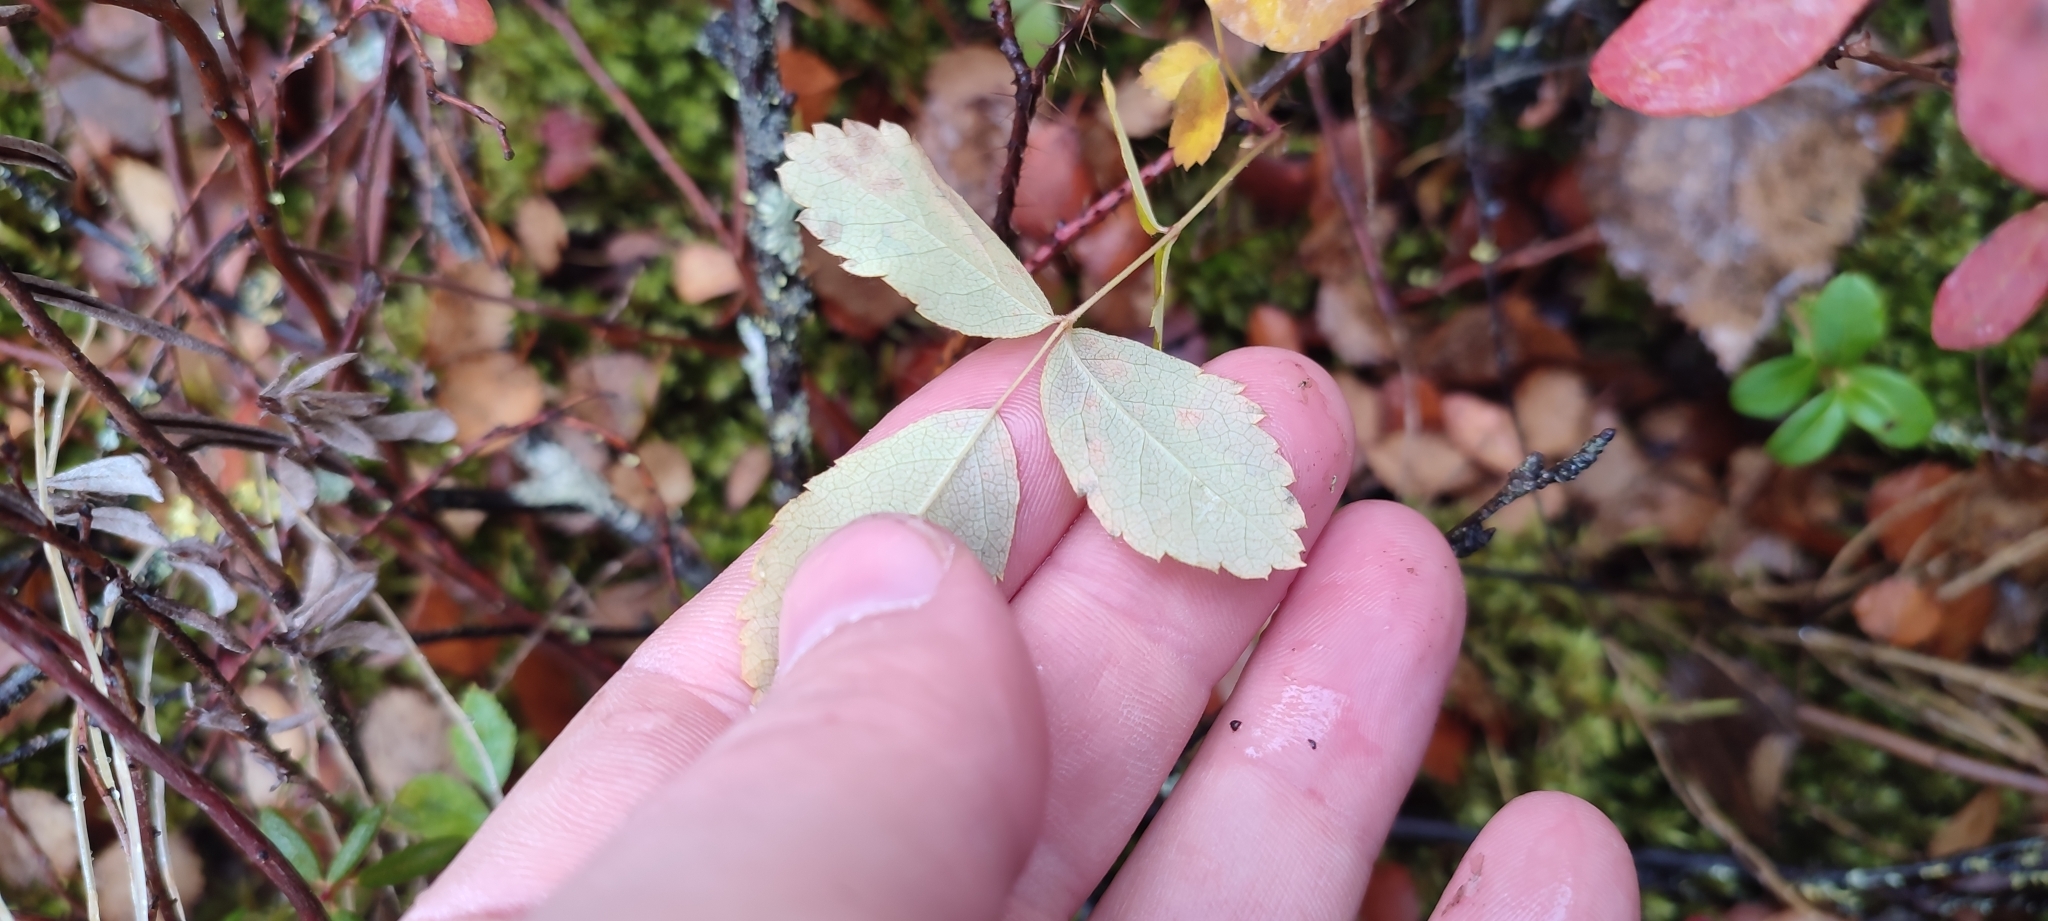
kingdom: Plantae
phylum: Tracheophyta
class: Magnoliopsida
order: Rosales
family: Rosaceae
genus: Rosa
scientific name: Rosa acicularis
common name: Prickly rose
